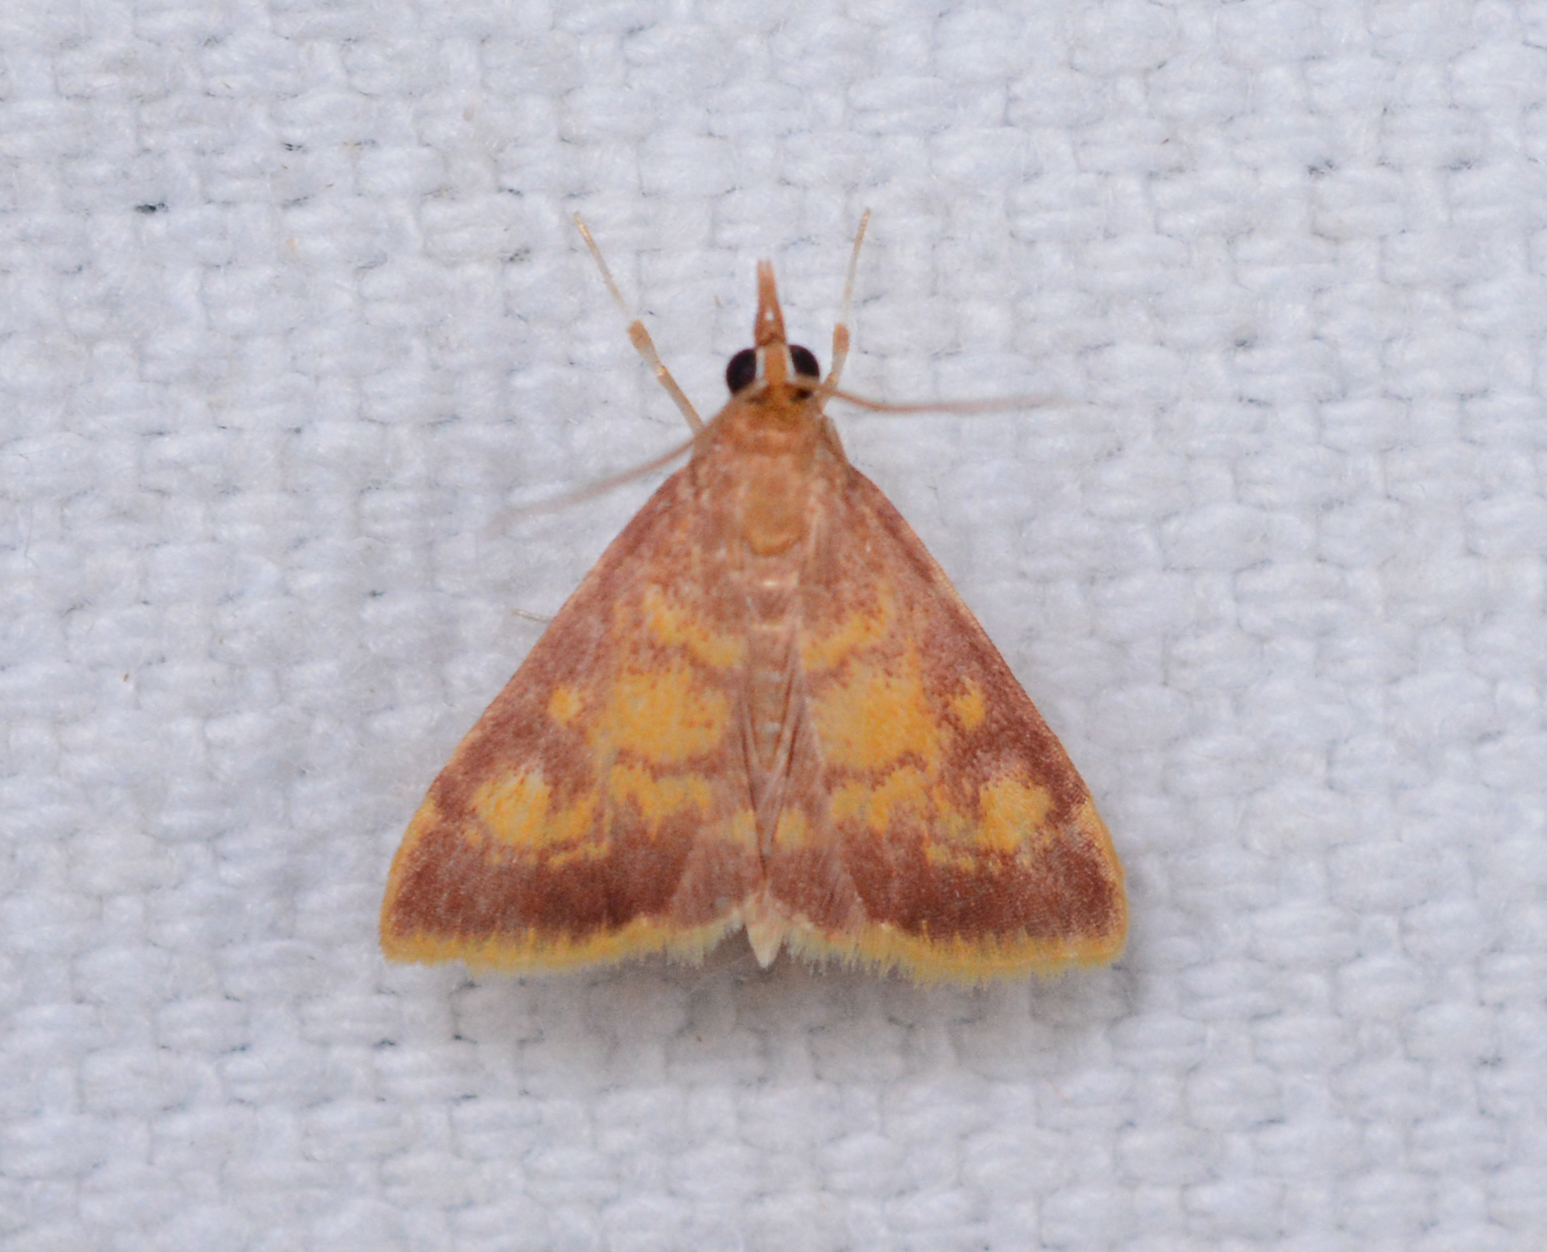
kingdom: Animalia
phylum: Arthropoda
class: Insecta
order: Lepidoptera
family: Crambidae
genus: Pyrausta
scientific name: Pyrausta acrionalis
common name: Mint-loving pyrausta moth
